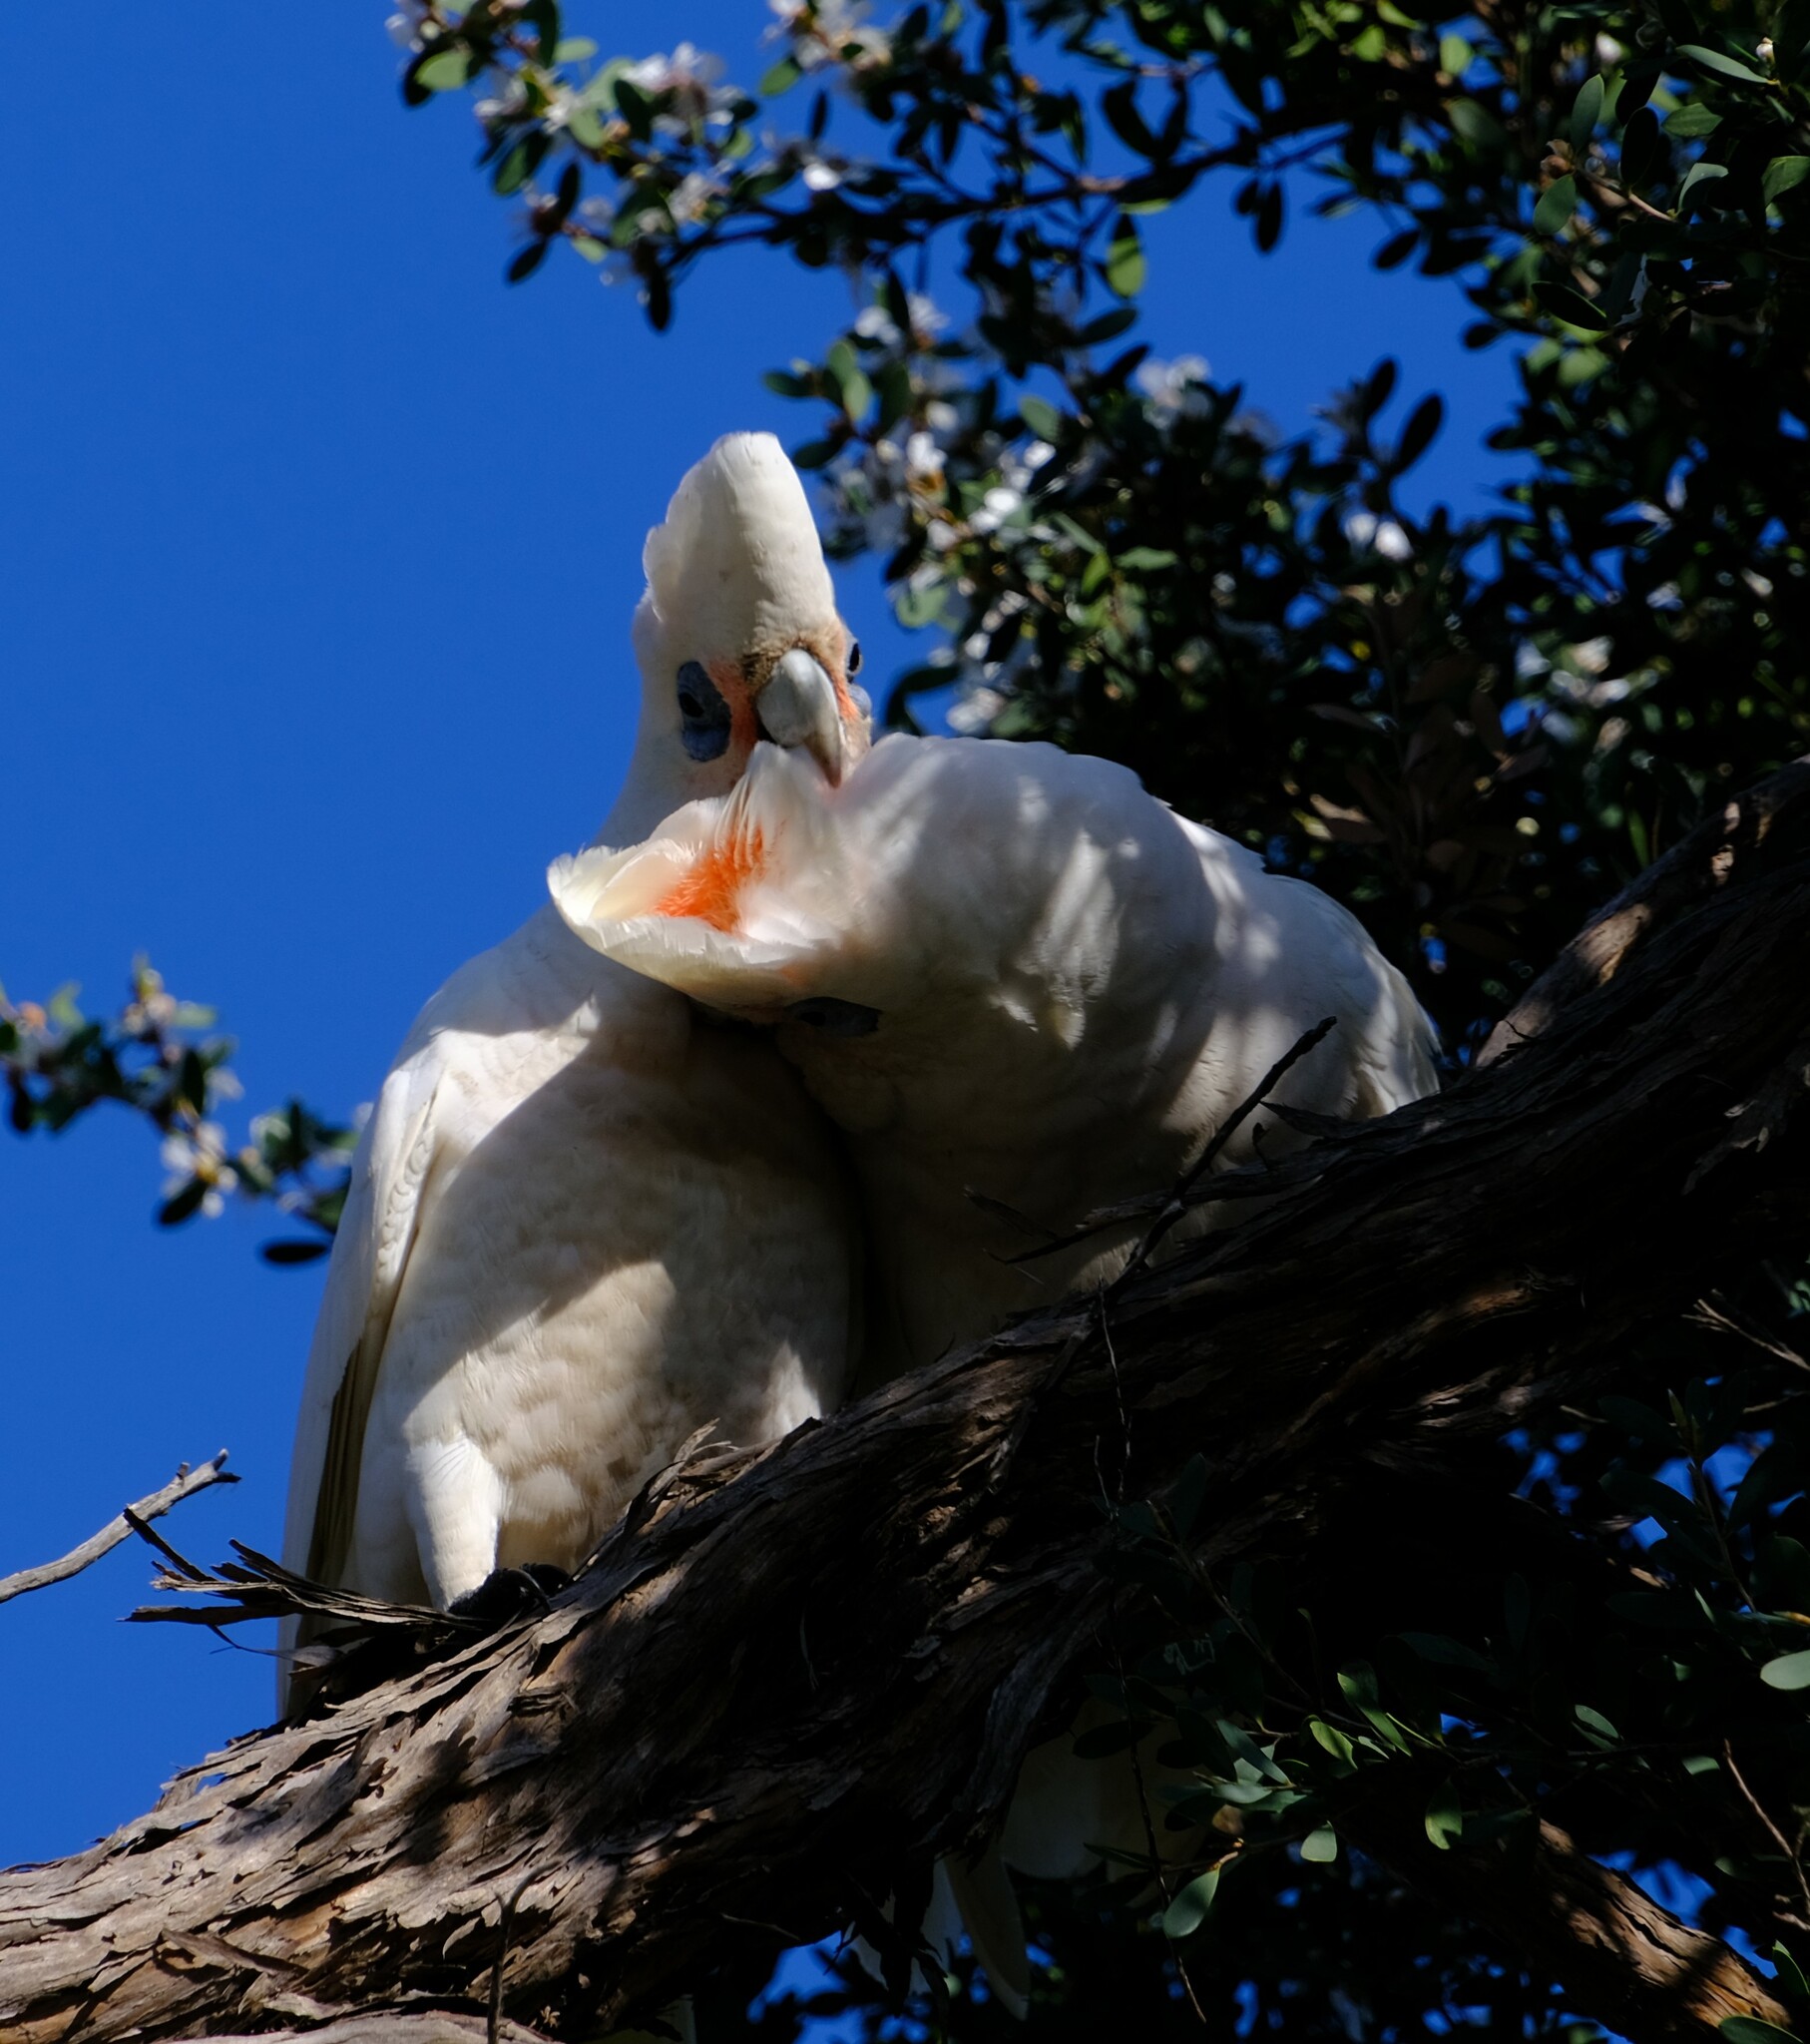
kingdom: Animalia
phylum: Chordata
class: Aves
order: Psittaciformes
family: Psittacidae
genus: Cacatua
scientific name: Cacatua sanguinea
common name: Little corella
